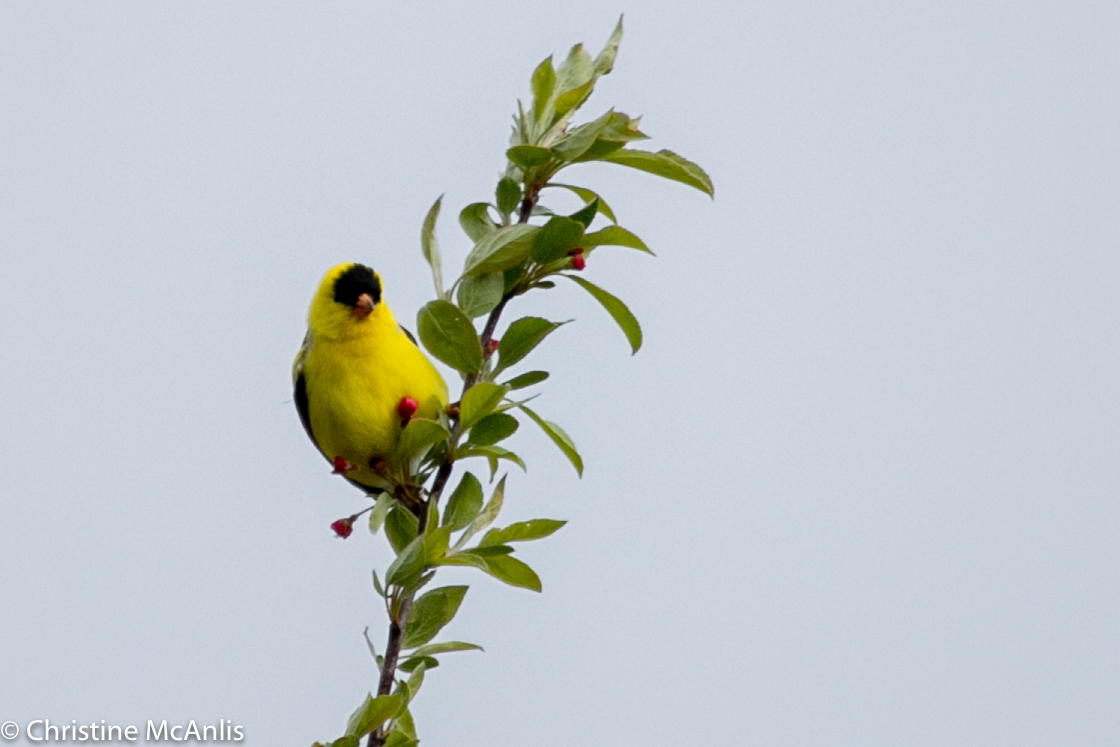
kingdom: Animalia
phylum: Chordata
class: Aves
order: Passeriformes
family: Fringillidae
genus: Spinus
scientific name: Spinus tristis
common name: American goldfinch
